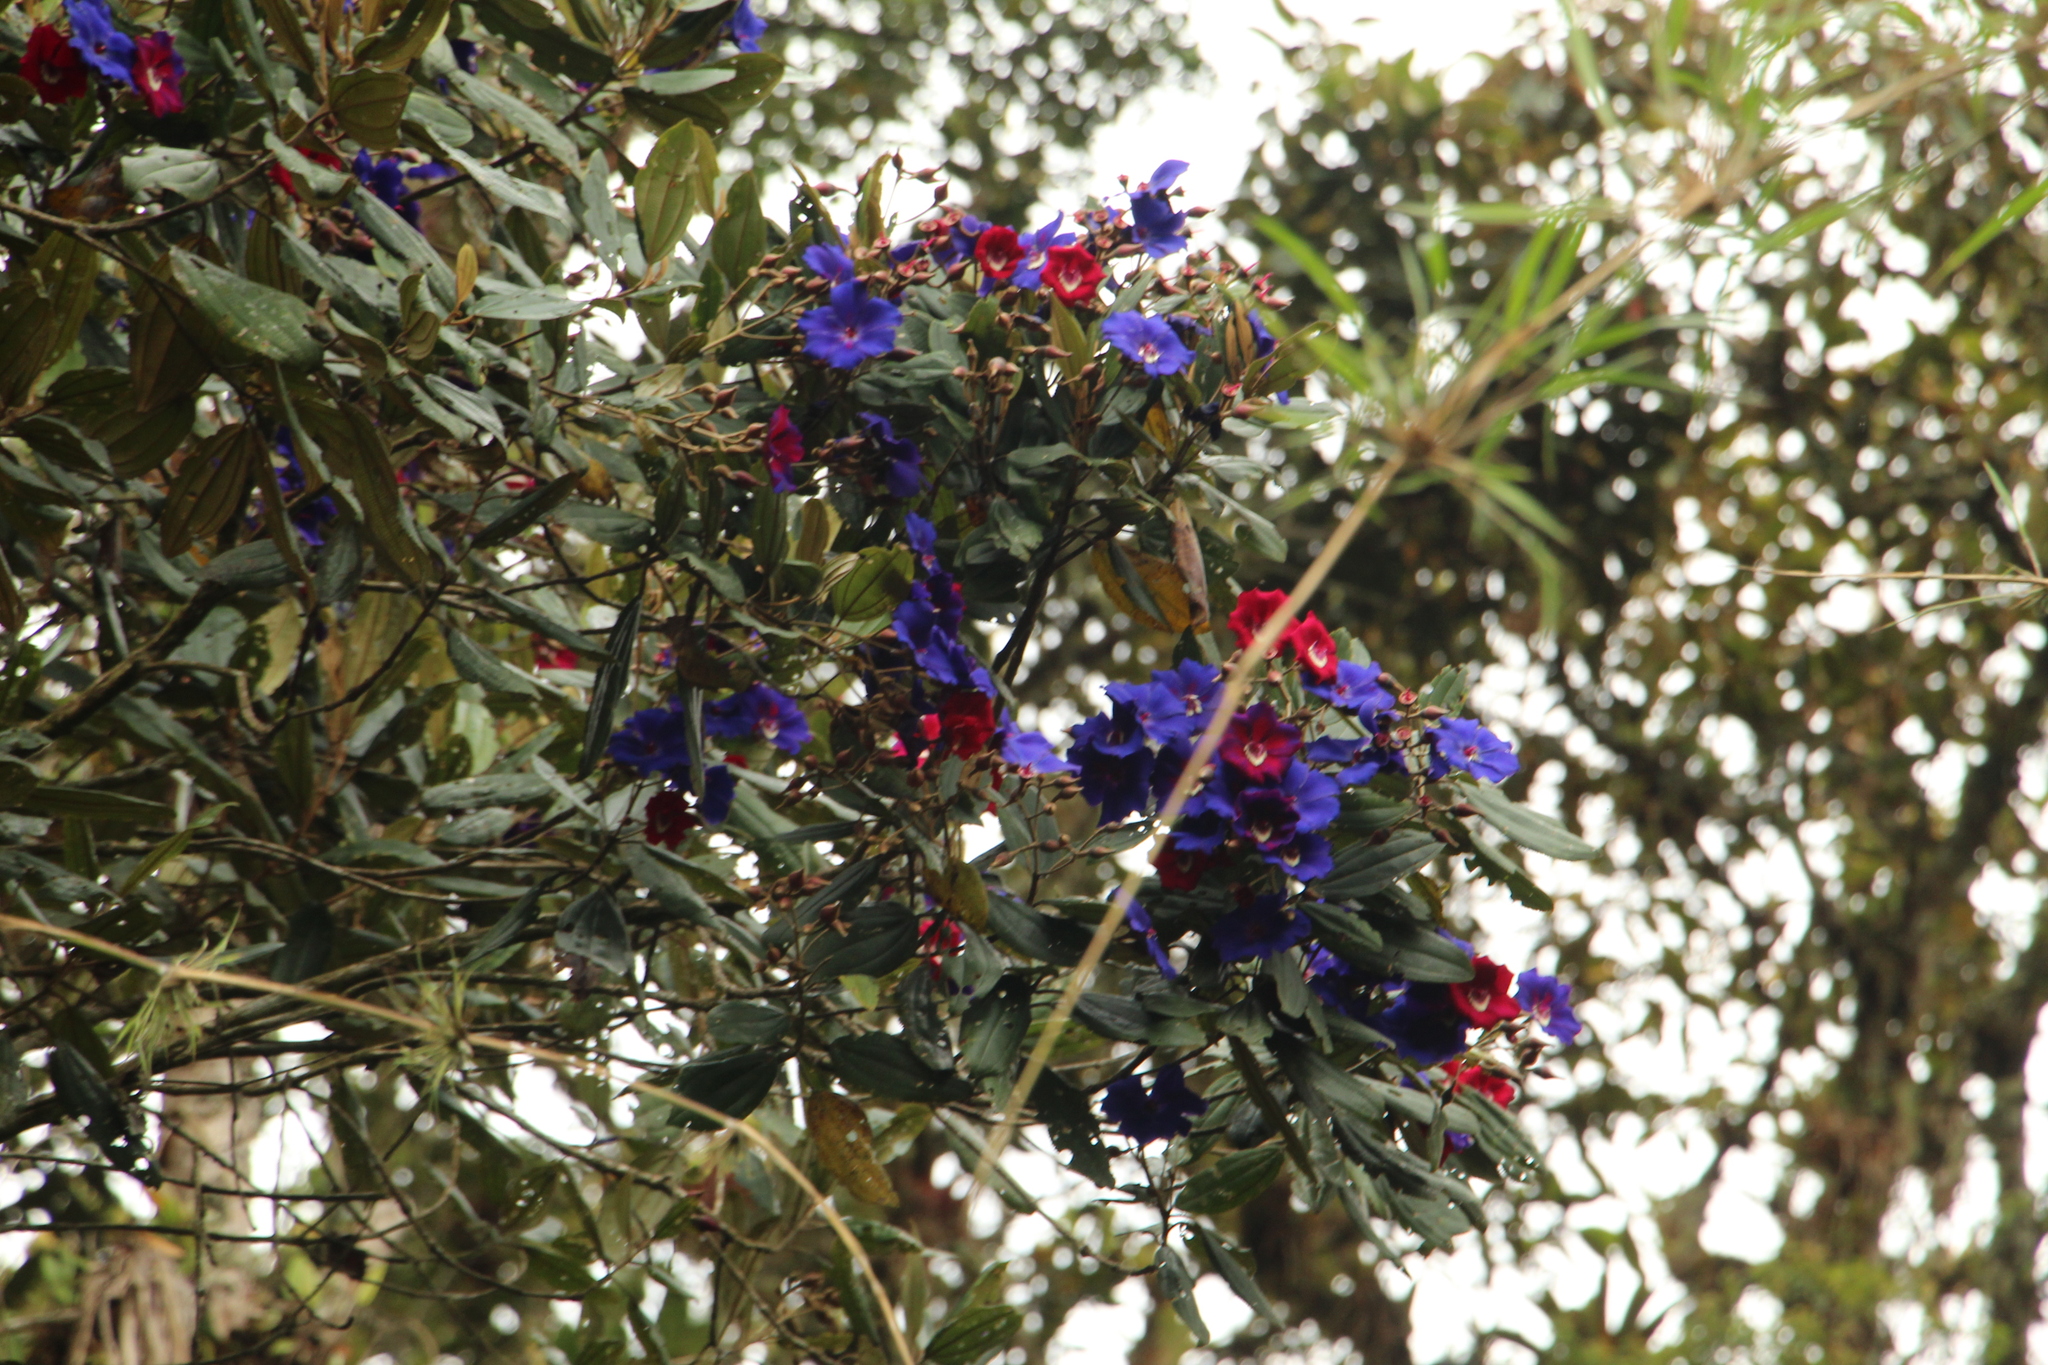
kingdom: Plantae
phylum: Tracheophyta
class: Magnoliopsida
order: Myrtales
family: Melastomataceae
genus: Meriania
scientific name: Meriania brachycera
